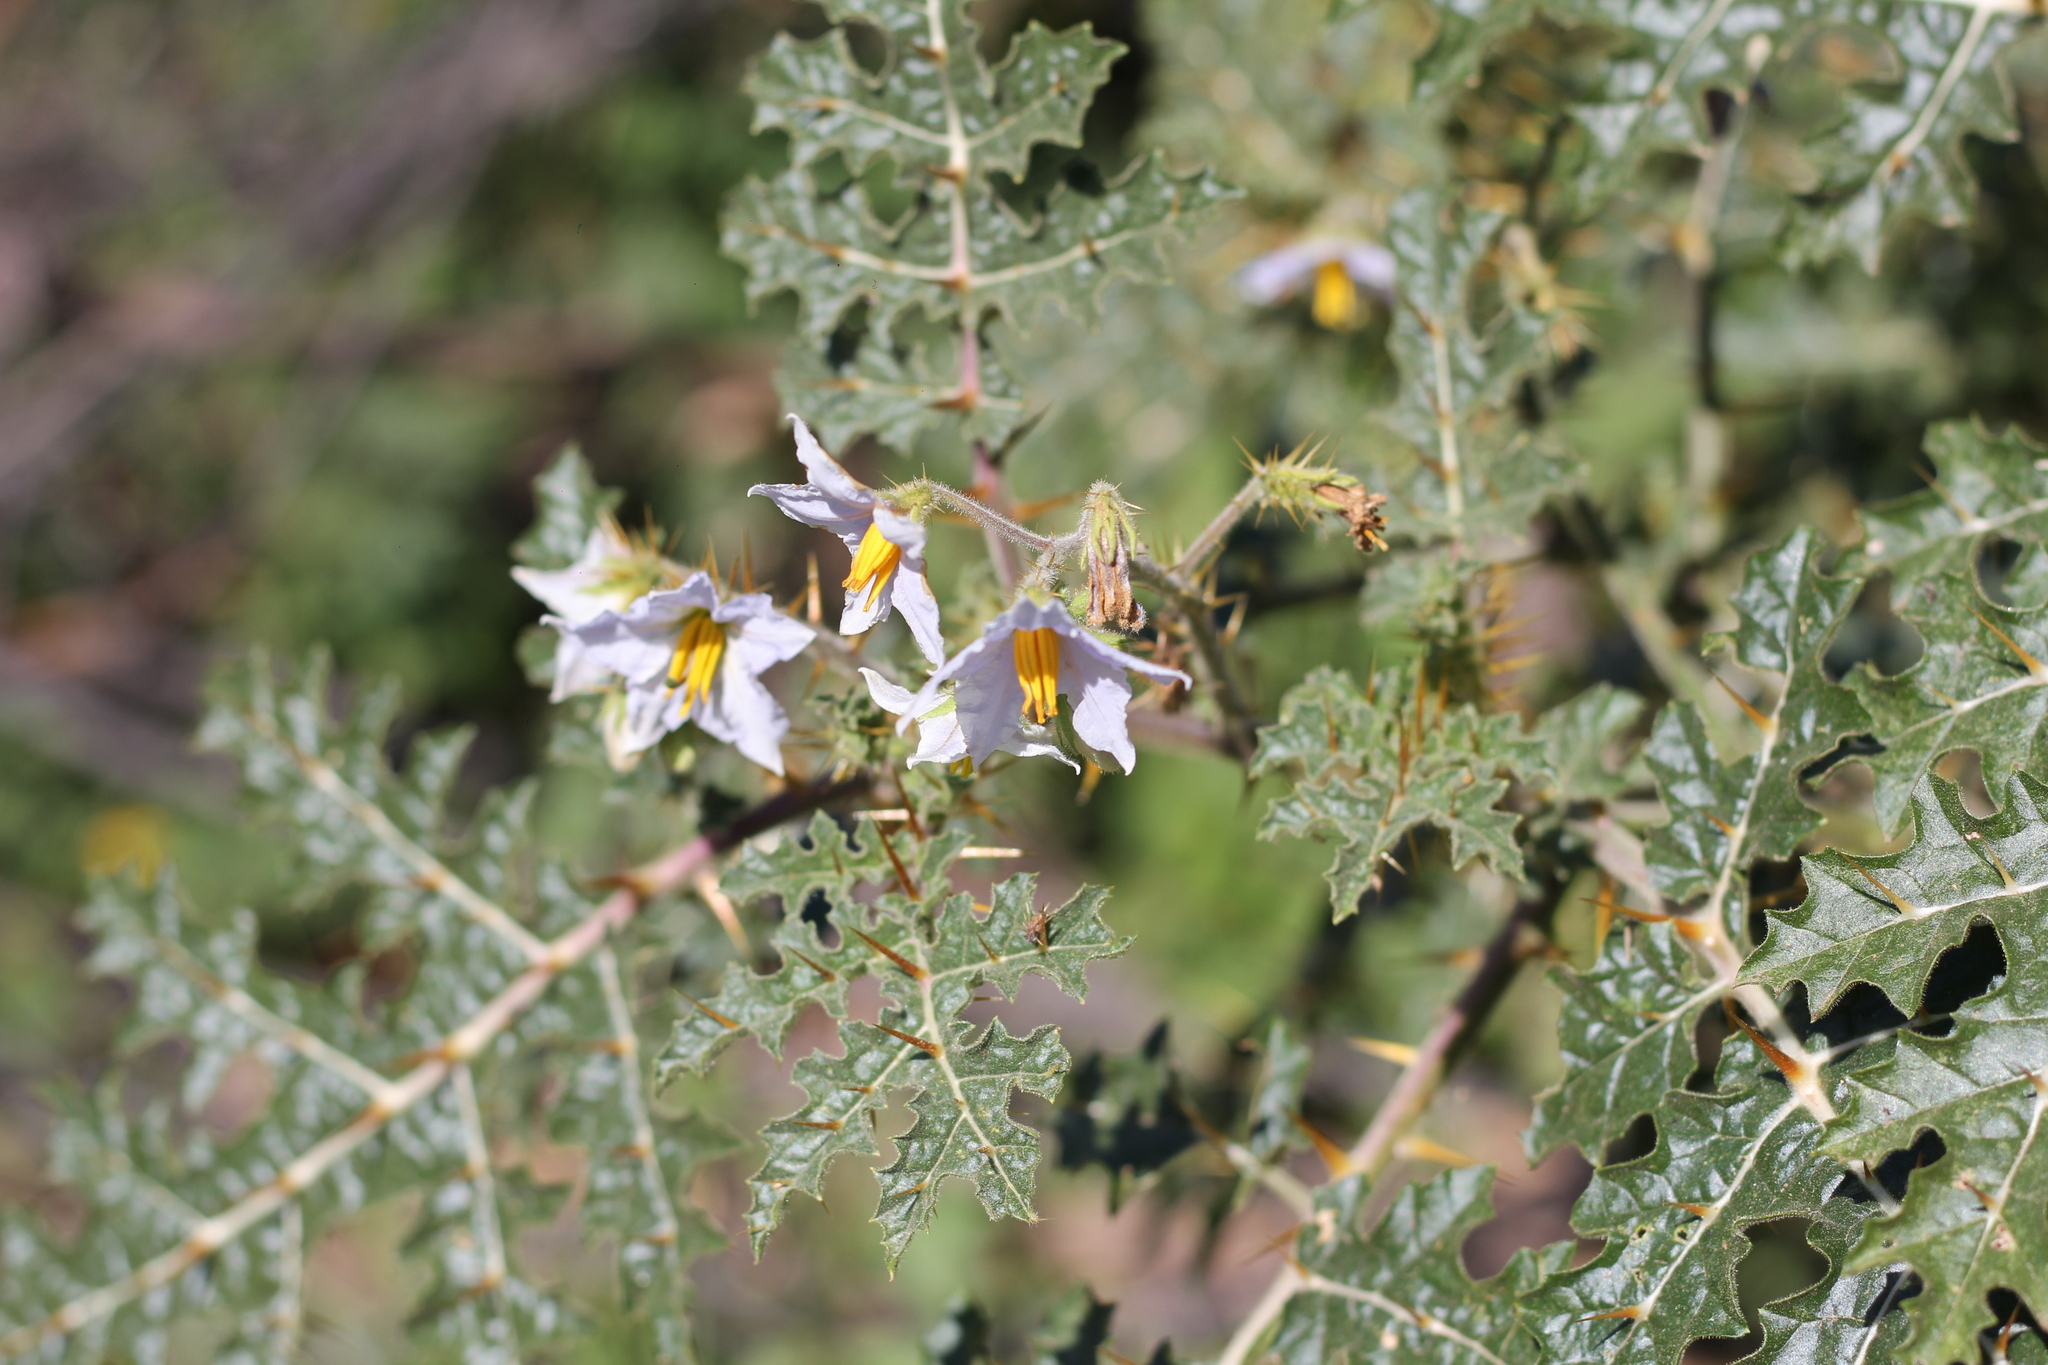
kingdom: Plantae
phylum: Tracheophyta
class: Magnoliopsida
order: Solanales
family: Solanaceae
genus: Solanum
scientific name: Solanum sisymbriifolium
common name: Red buffalo-bur
